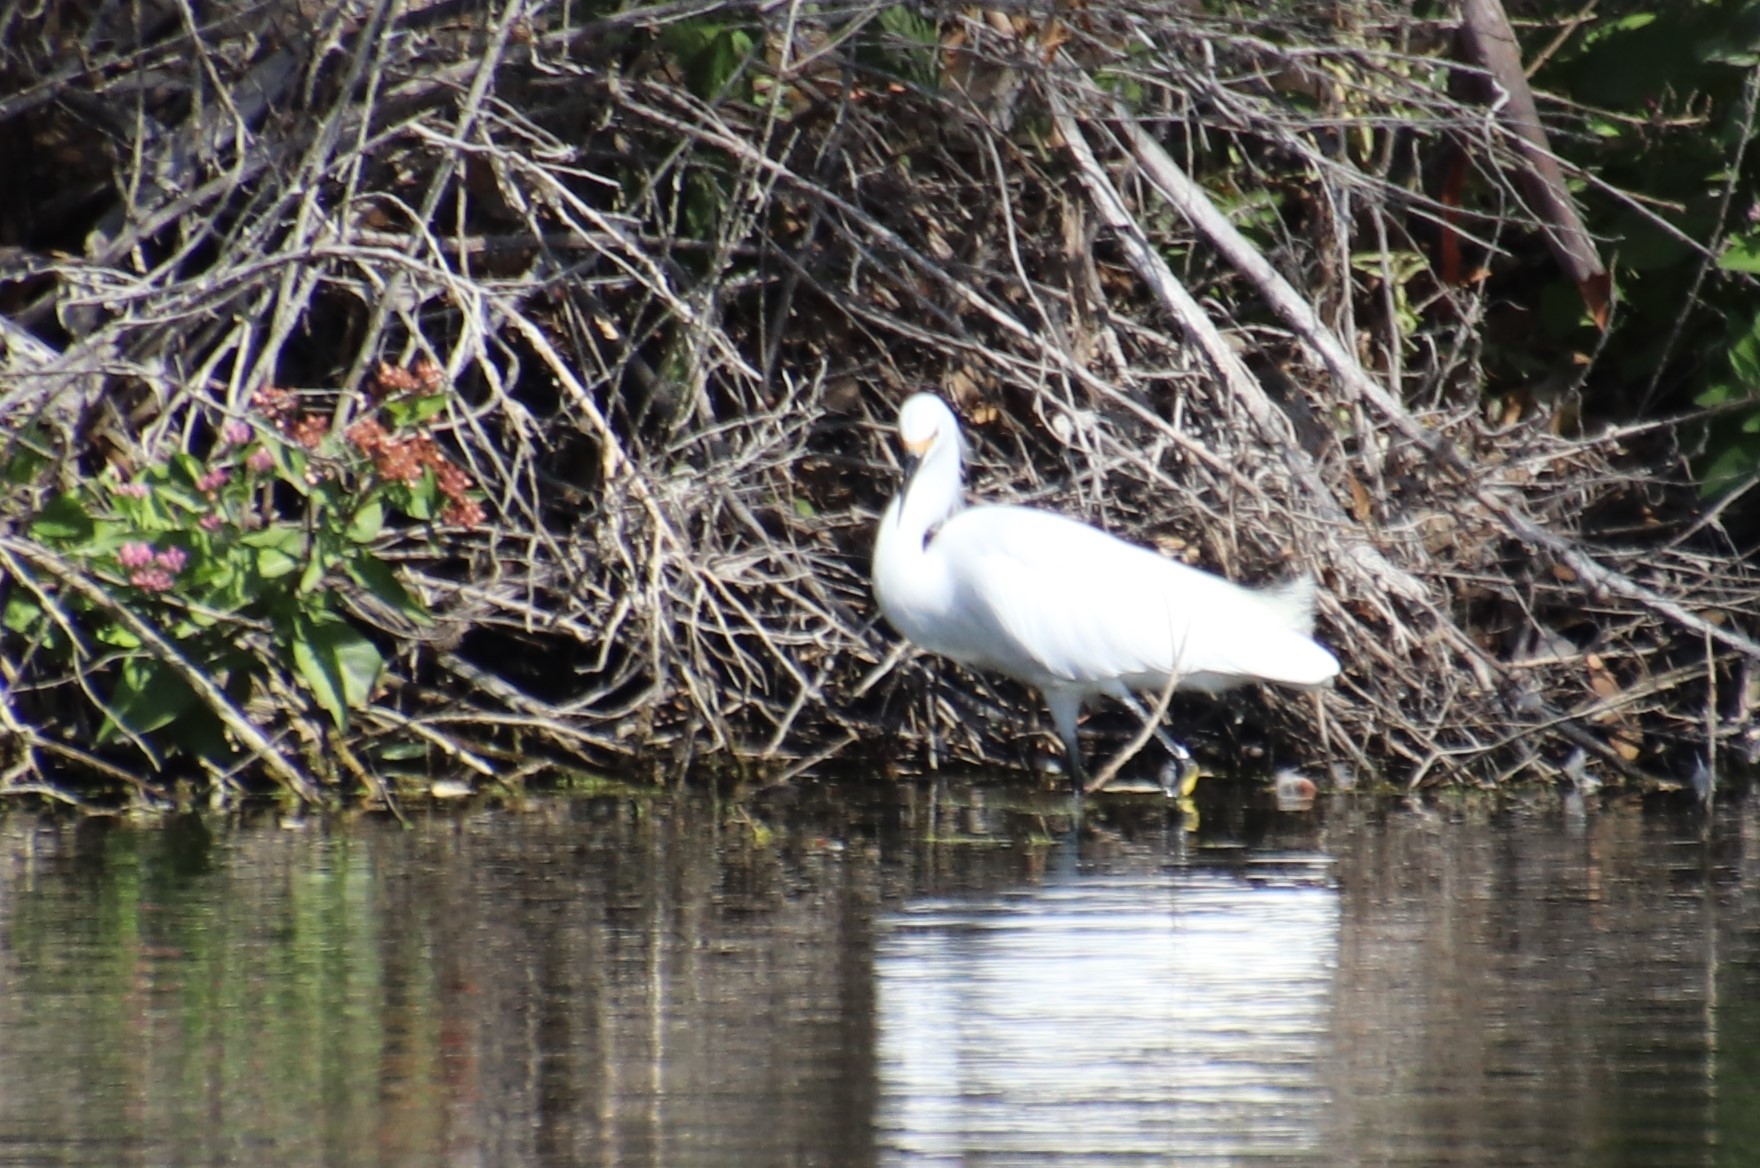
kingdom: Animalia
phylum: Chordata
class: Aves
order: Pelecaniformes
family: Ardeidae
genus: Egretta
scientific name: Egretta thula
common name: Snowy egret
